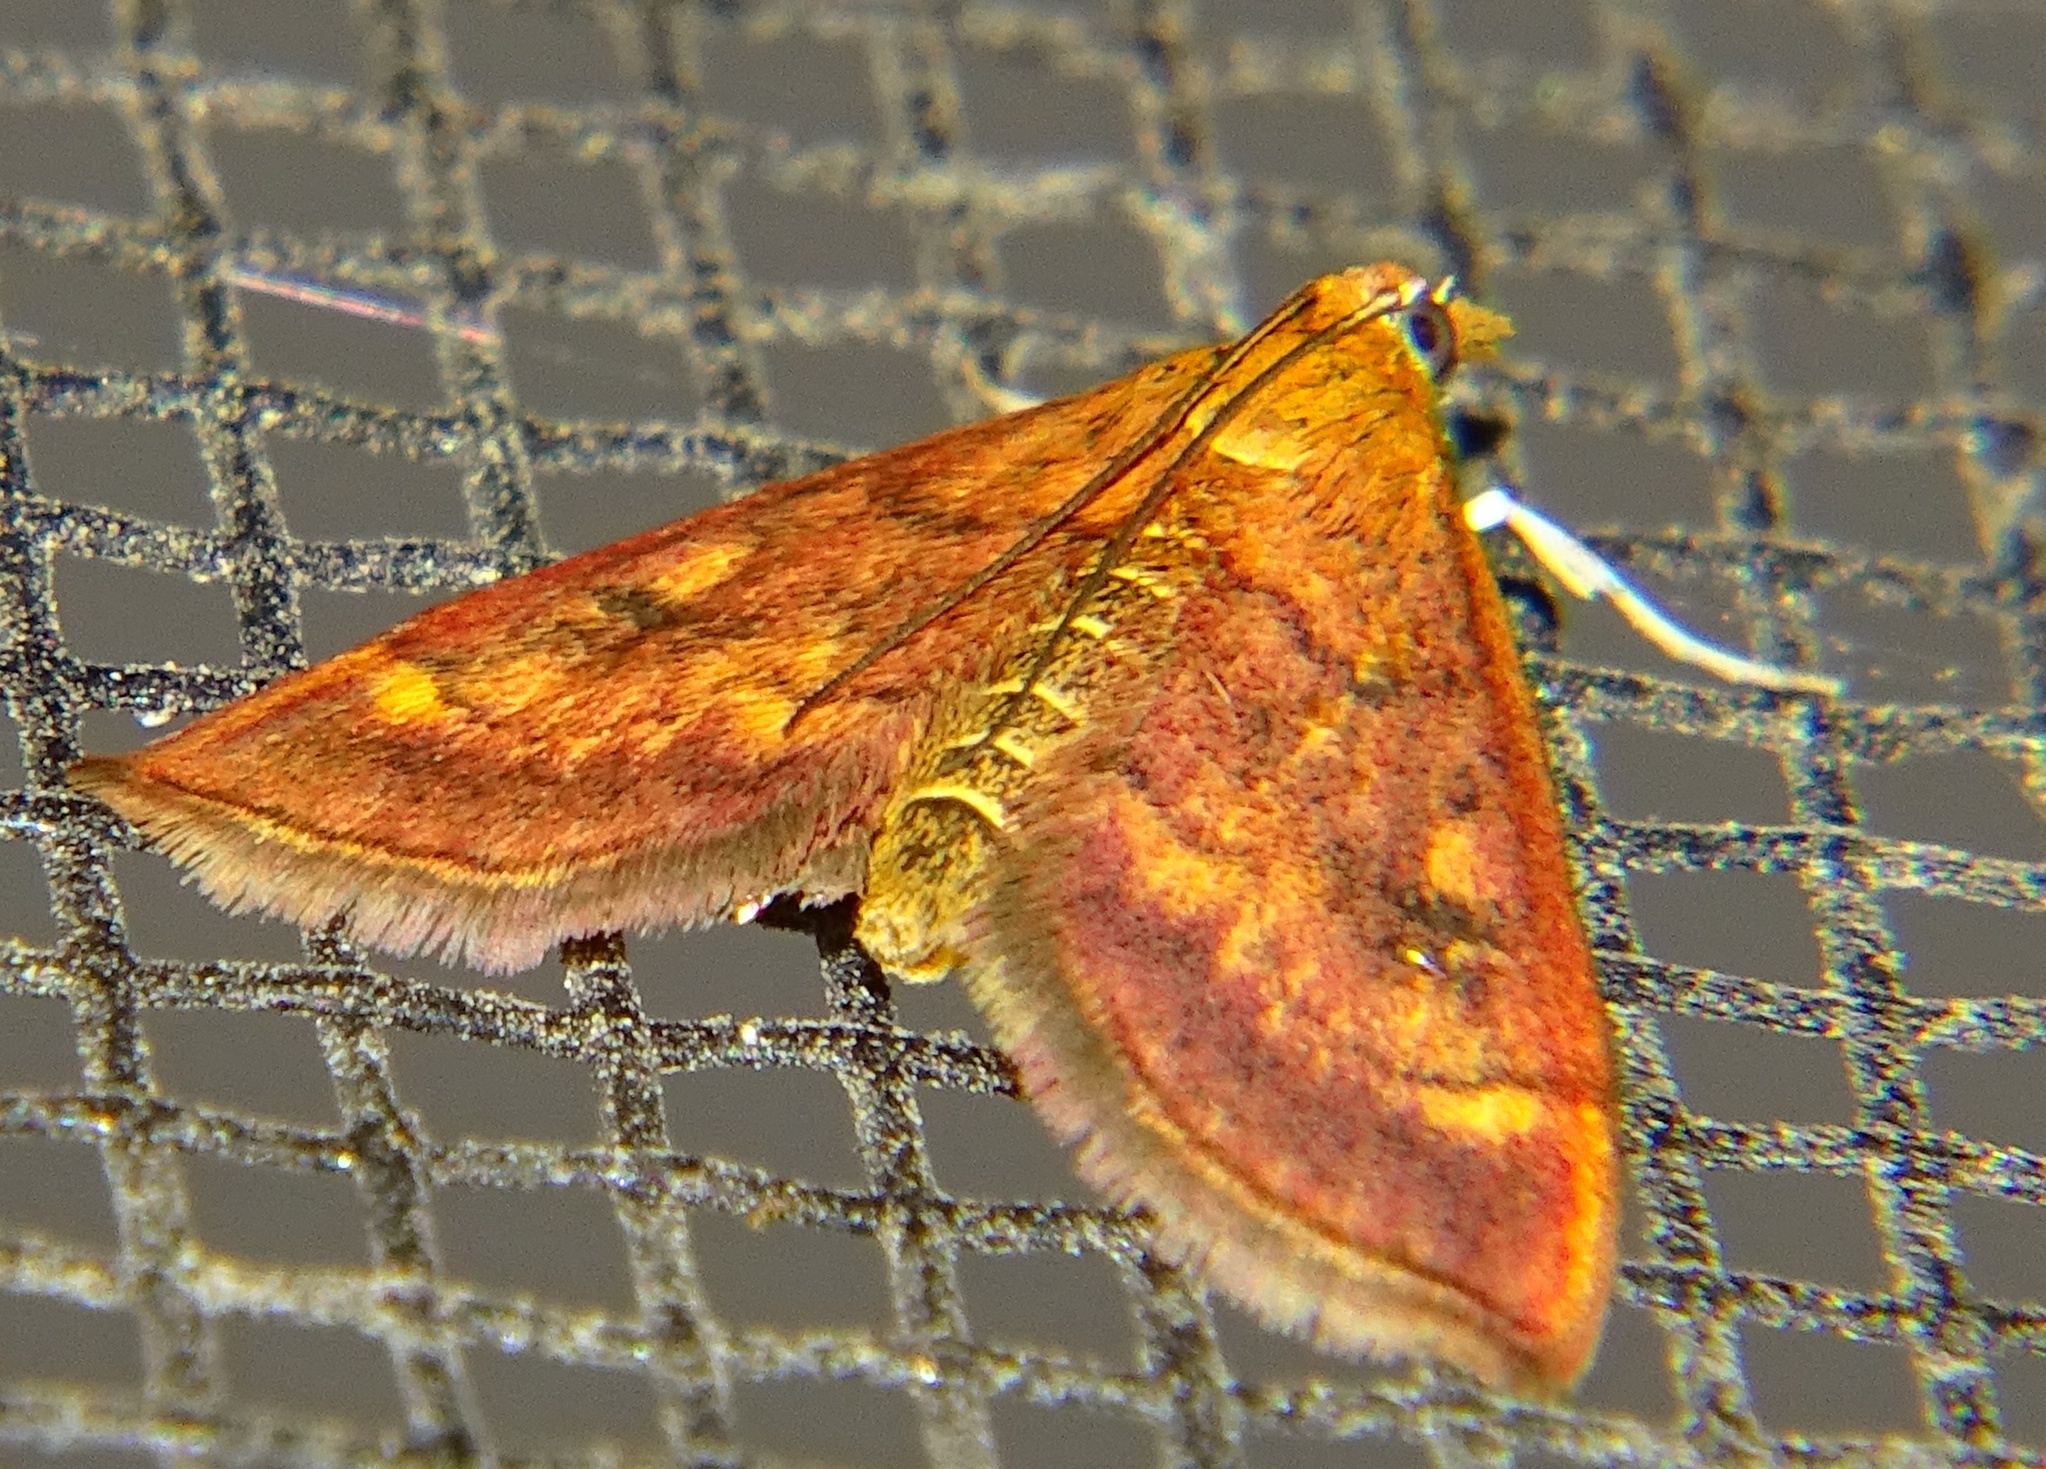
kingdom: Animalia
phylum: Arthropoda
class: Insecta
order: Lepidoptera
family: Crambidae
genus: Pyrausta
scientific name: Pyrausta californicalis
